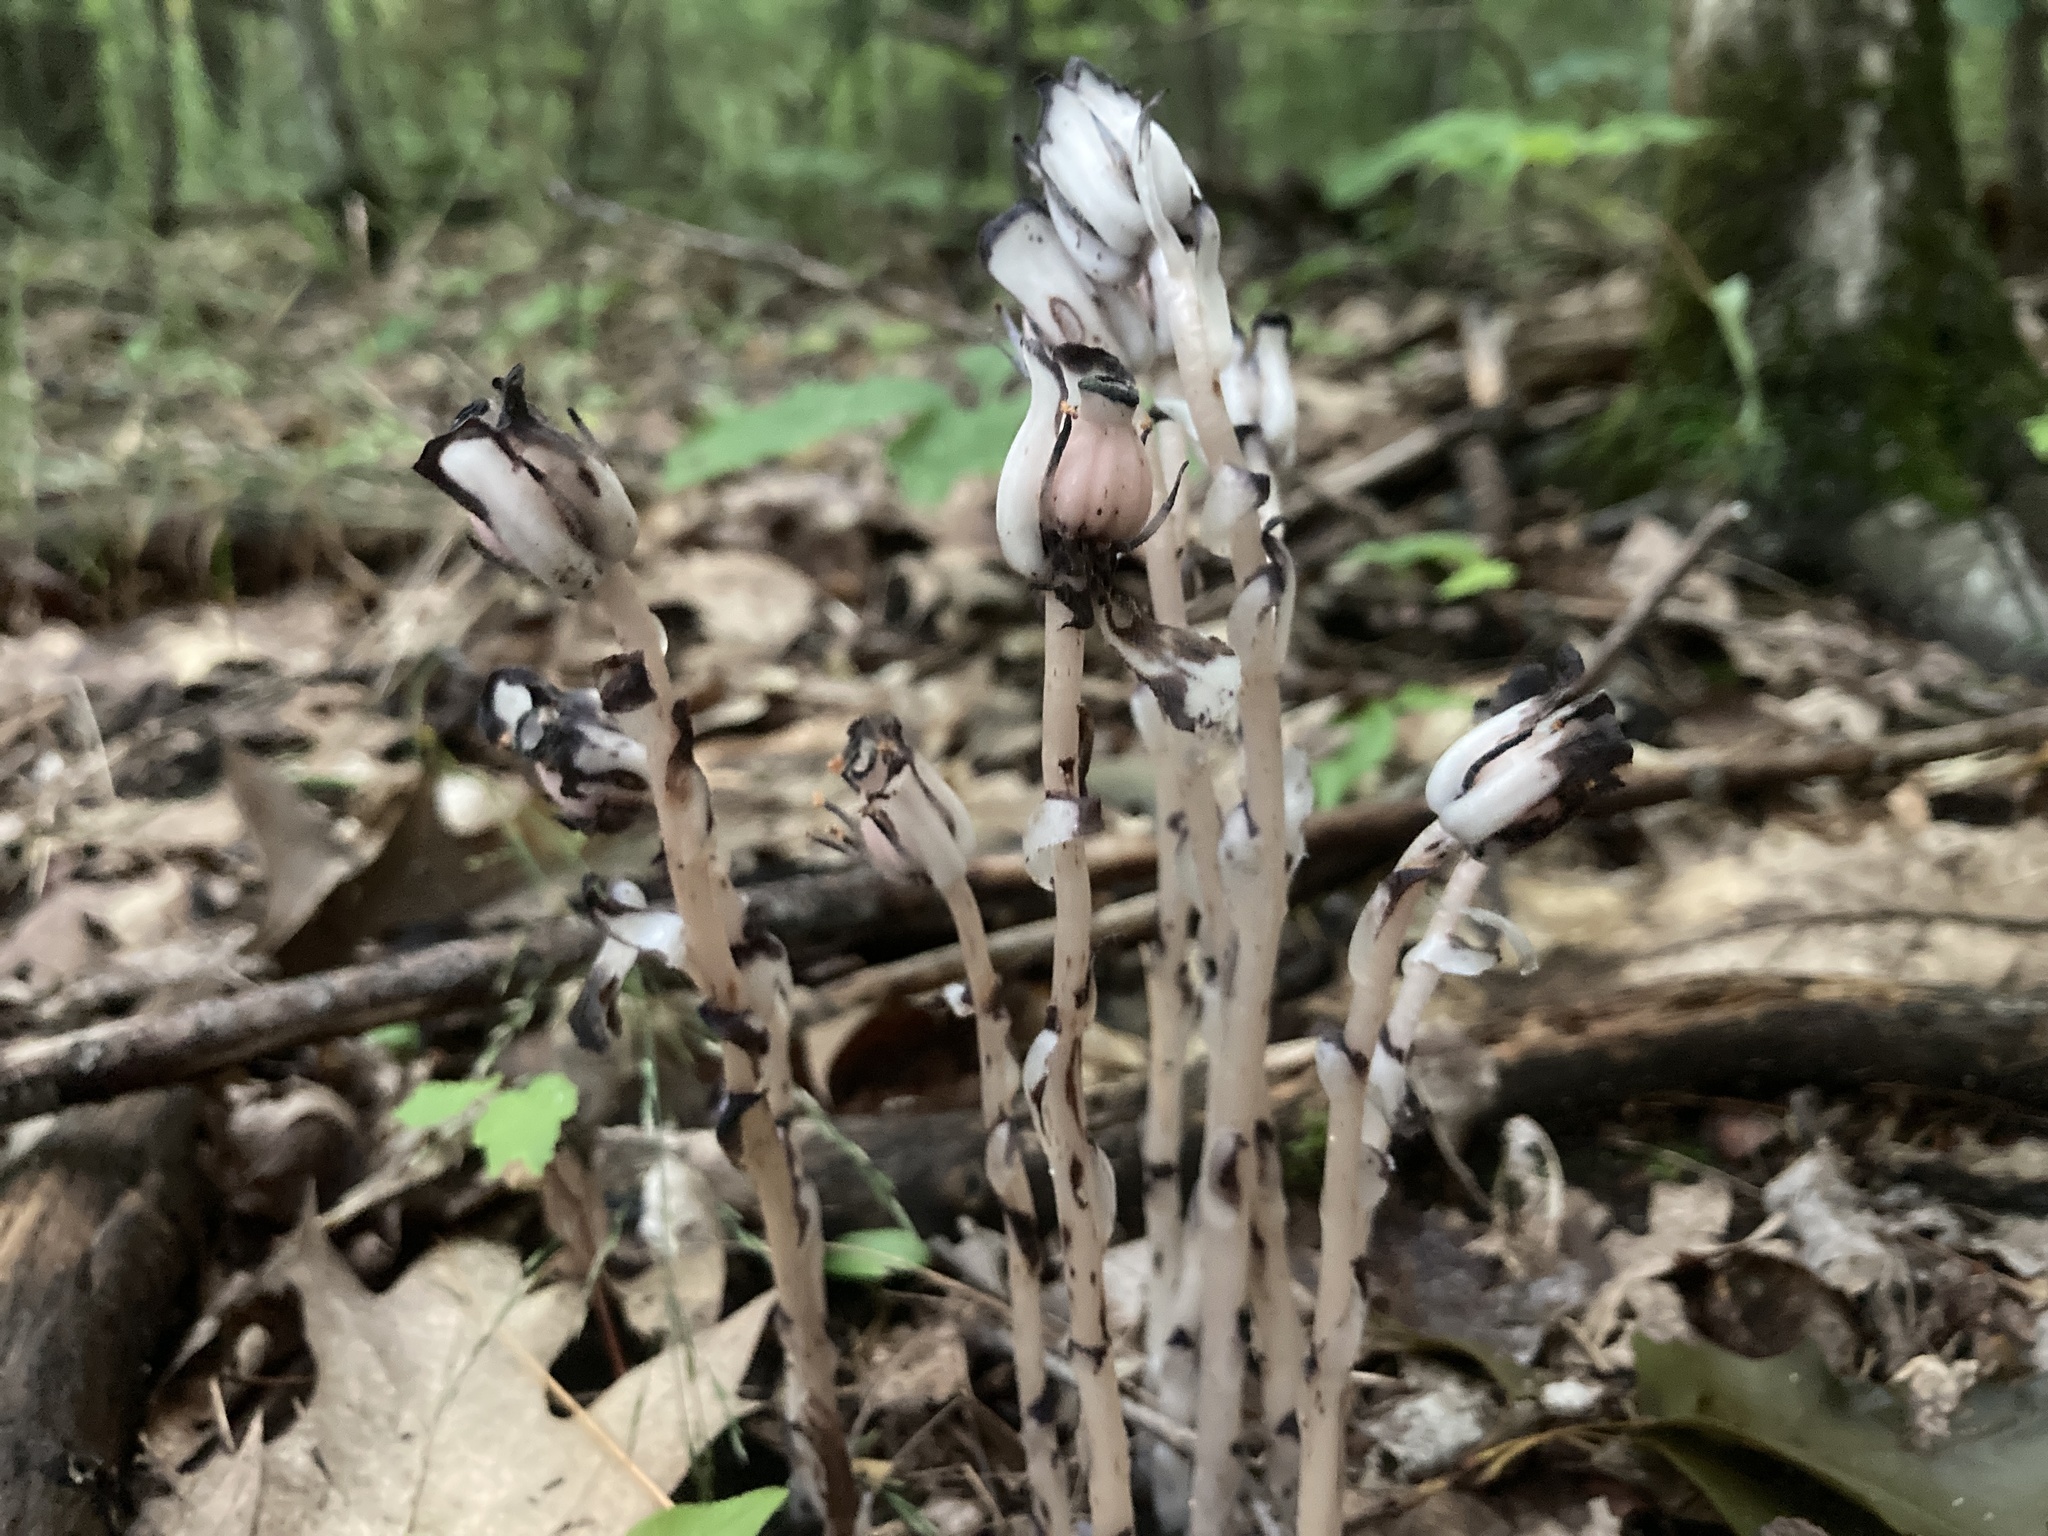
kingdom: Plantae
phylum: Tracheophyta
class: Magnoliopsida
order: Ericales
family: Ericaceae
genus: Monotropa
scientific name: Monotropa uniflora
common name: Convulsion root
